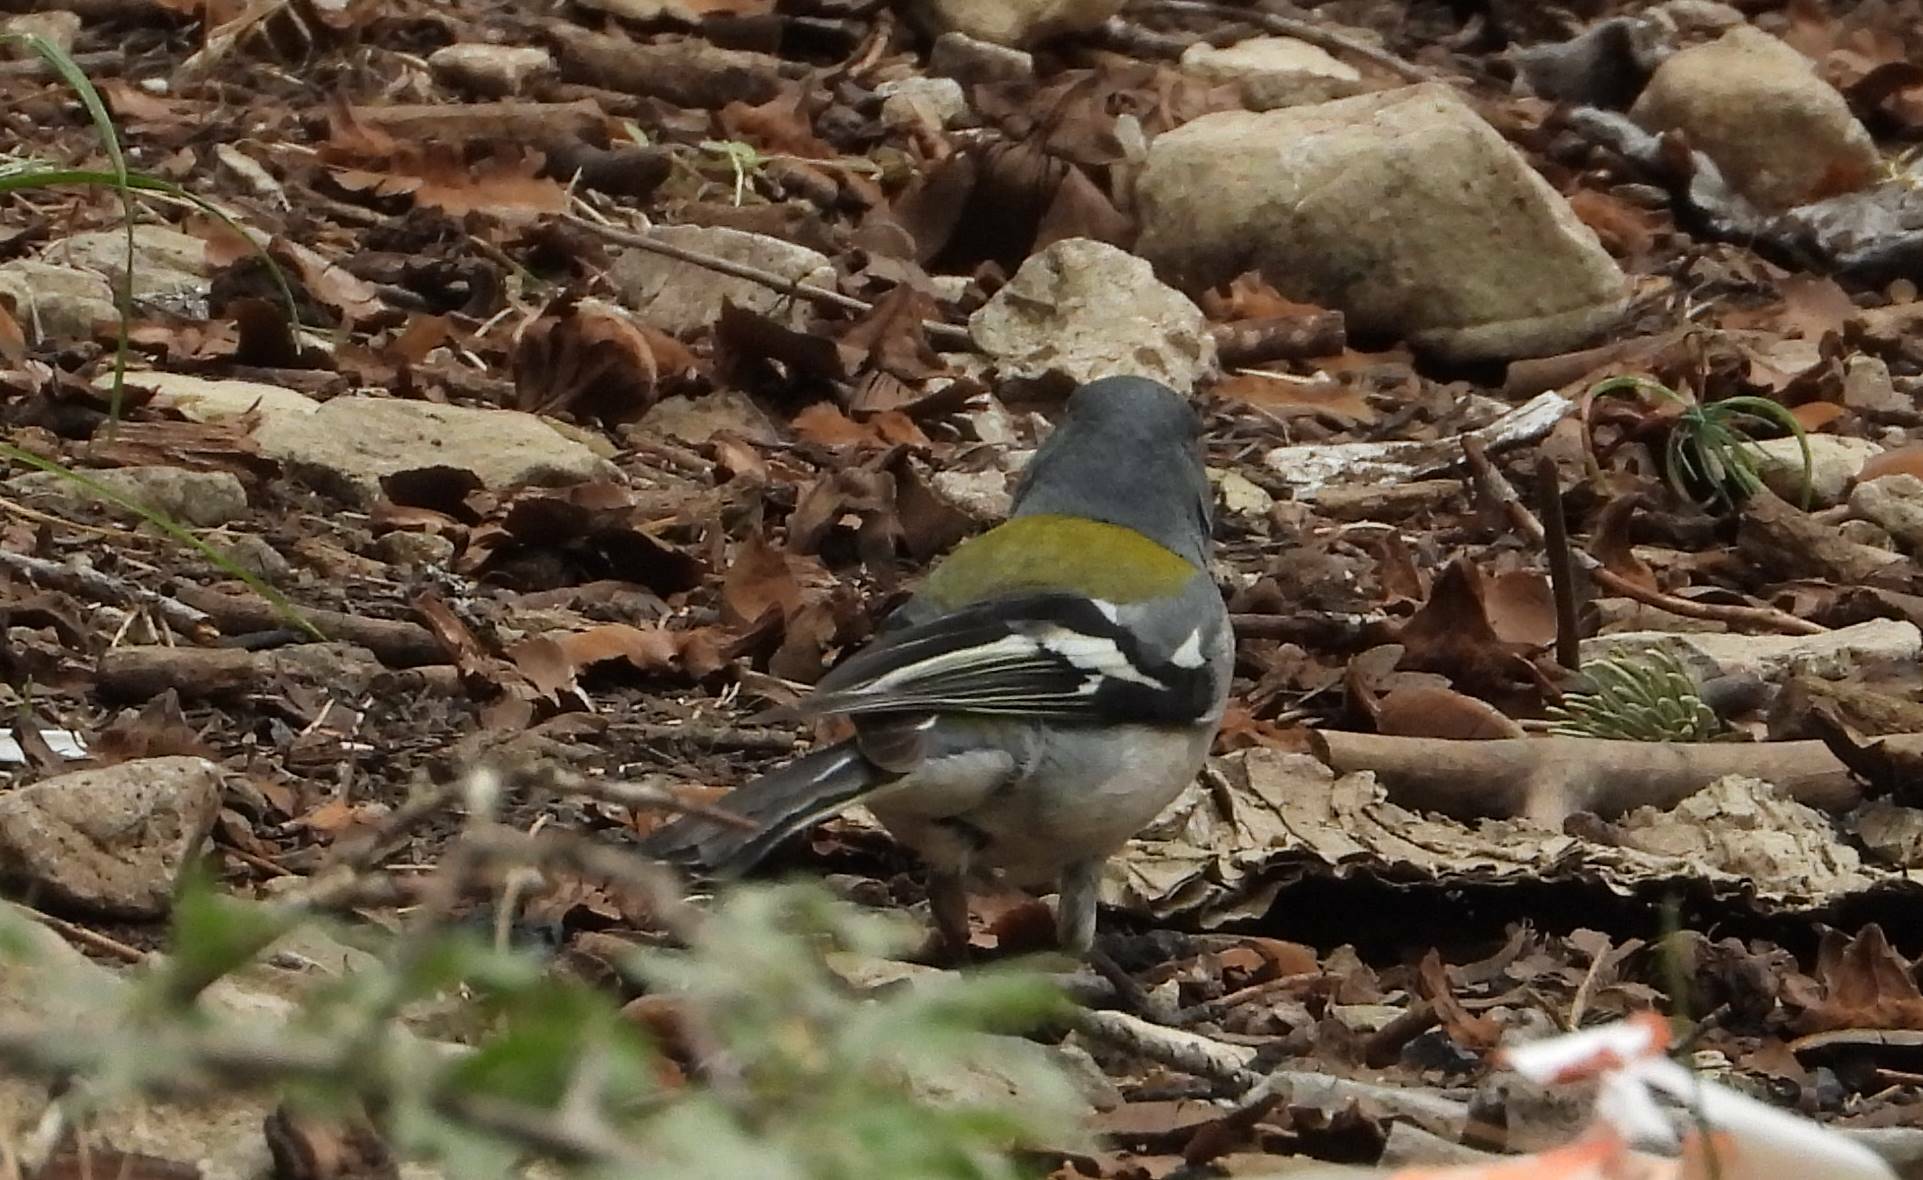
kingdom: Animalia
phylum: Chordata
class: Aves
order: Passeriformes
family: Fringillidae
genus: Fringilla
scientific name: Fringilla spodiogenys
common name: African chaffinch
